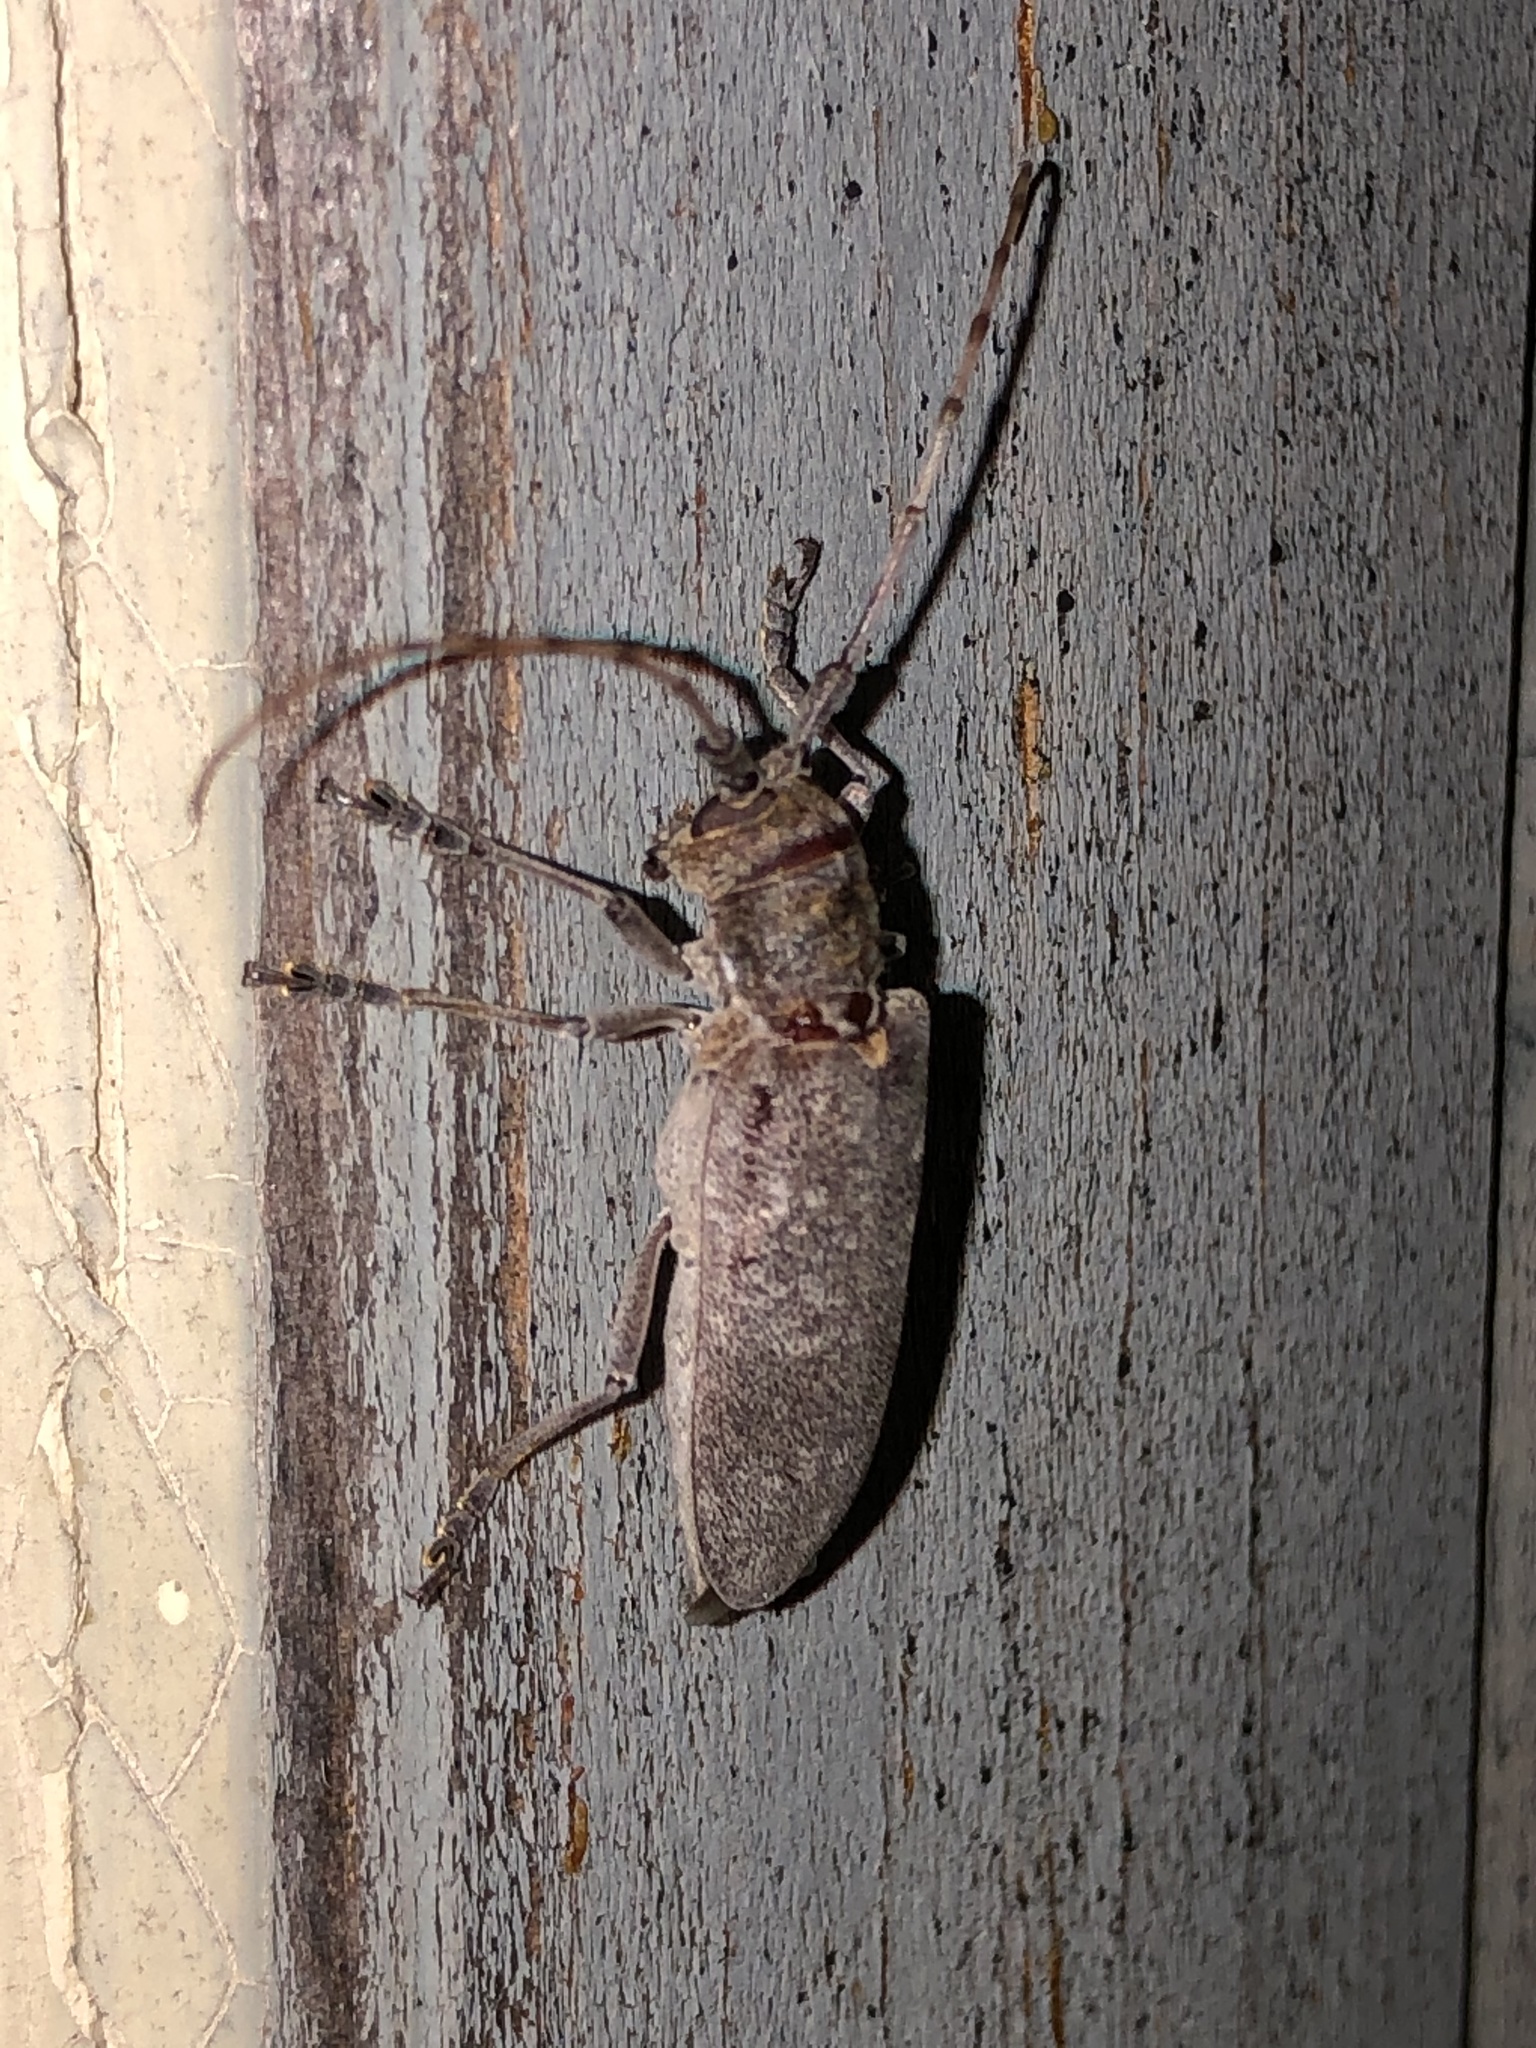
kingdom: Animalia
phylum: Arthropoda
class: Insecta
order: Coleoptera
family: Cerambycidae
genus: Goes
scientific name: Goes pulverulentus
